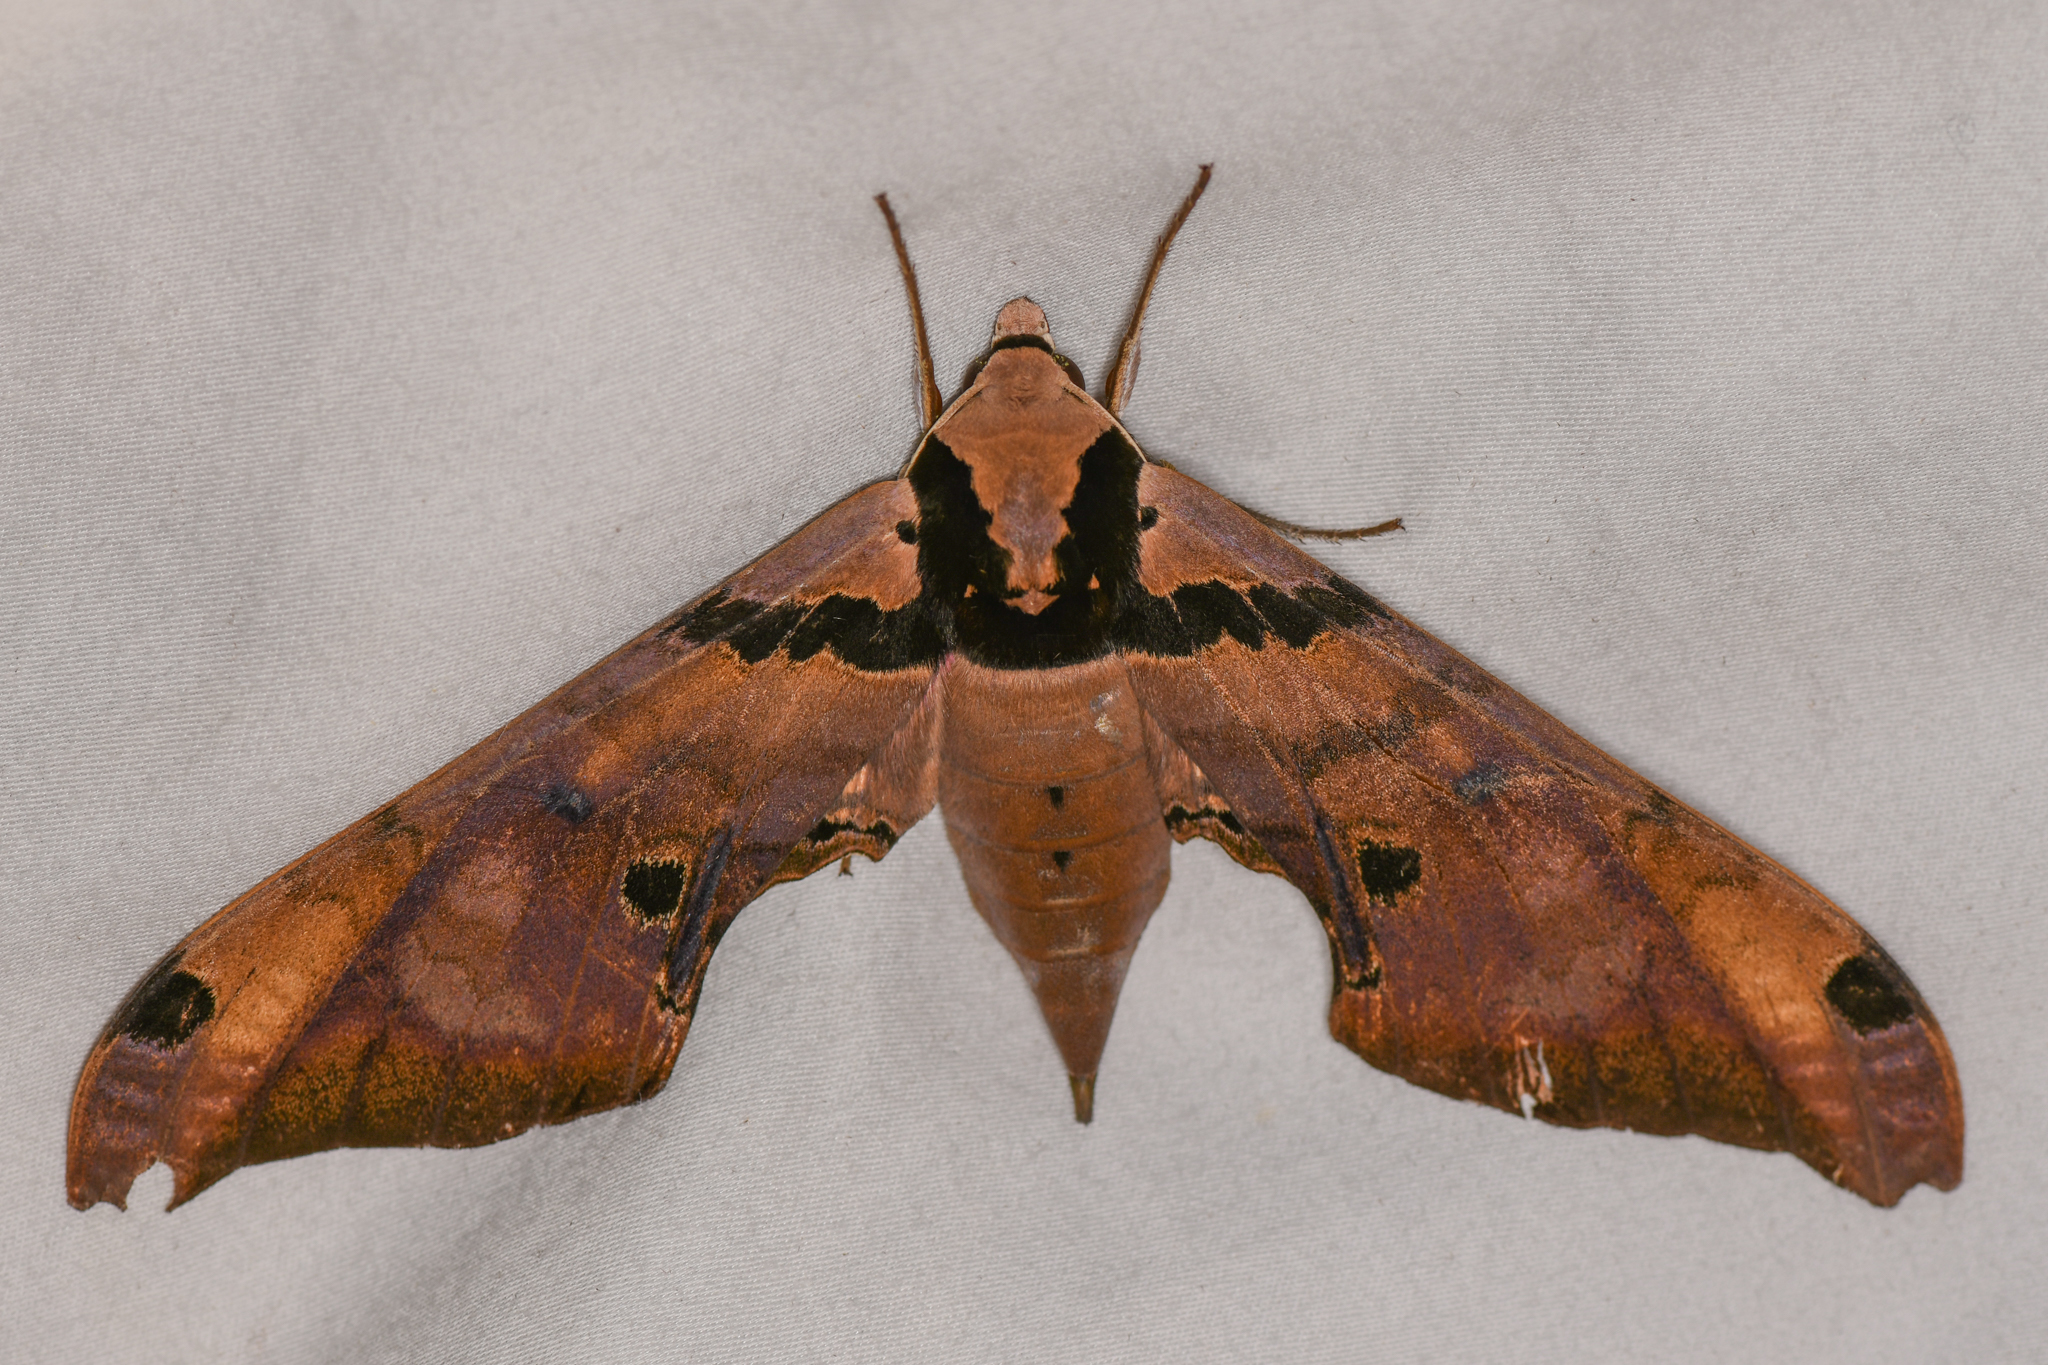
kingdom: Animalia
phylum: Arthropoda
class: Insecta
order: Lepidoptera
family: Sphingidae
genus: Adhemarius
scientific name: Adhemarius gannascus
